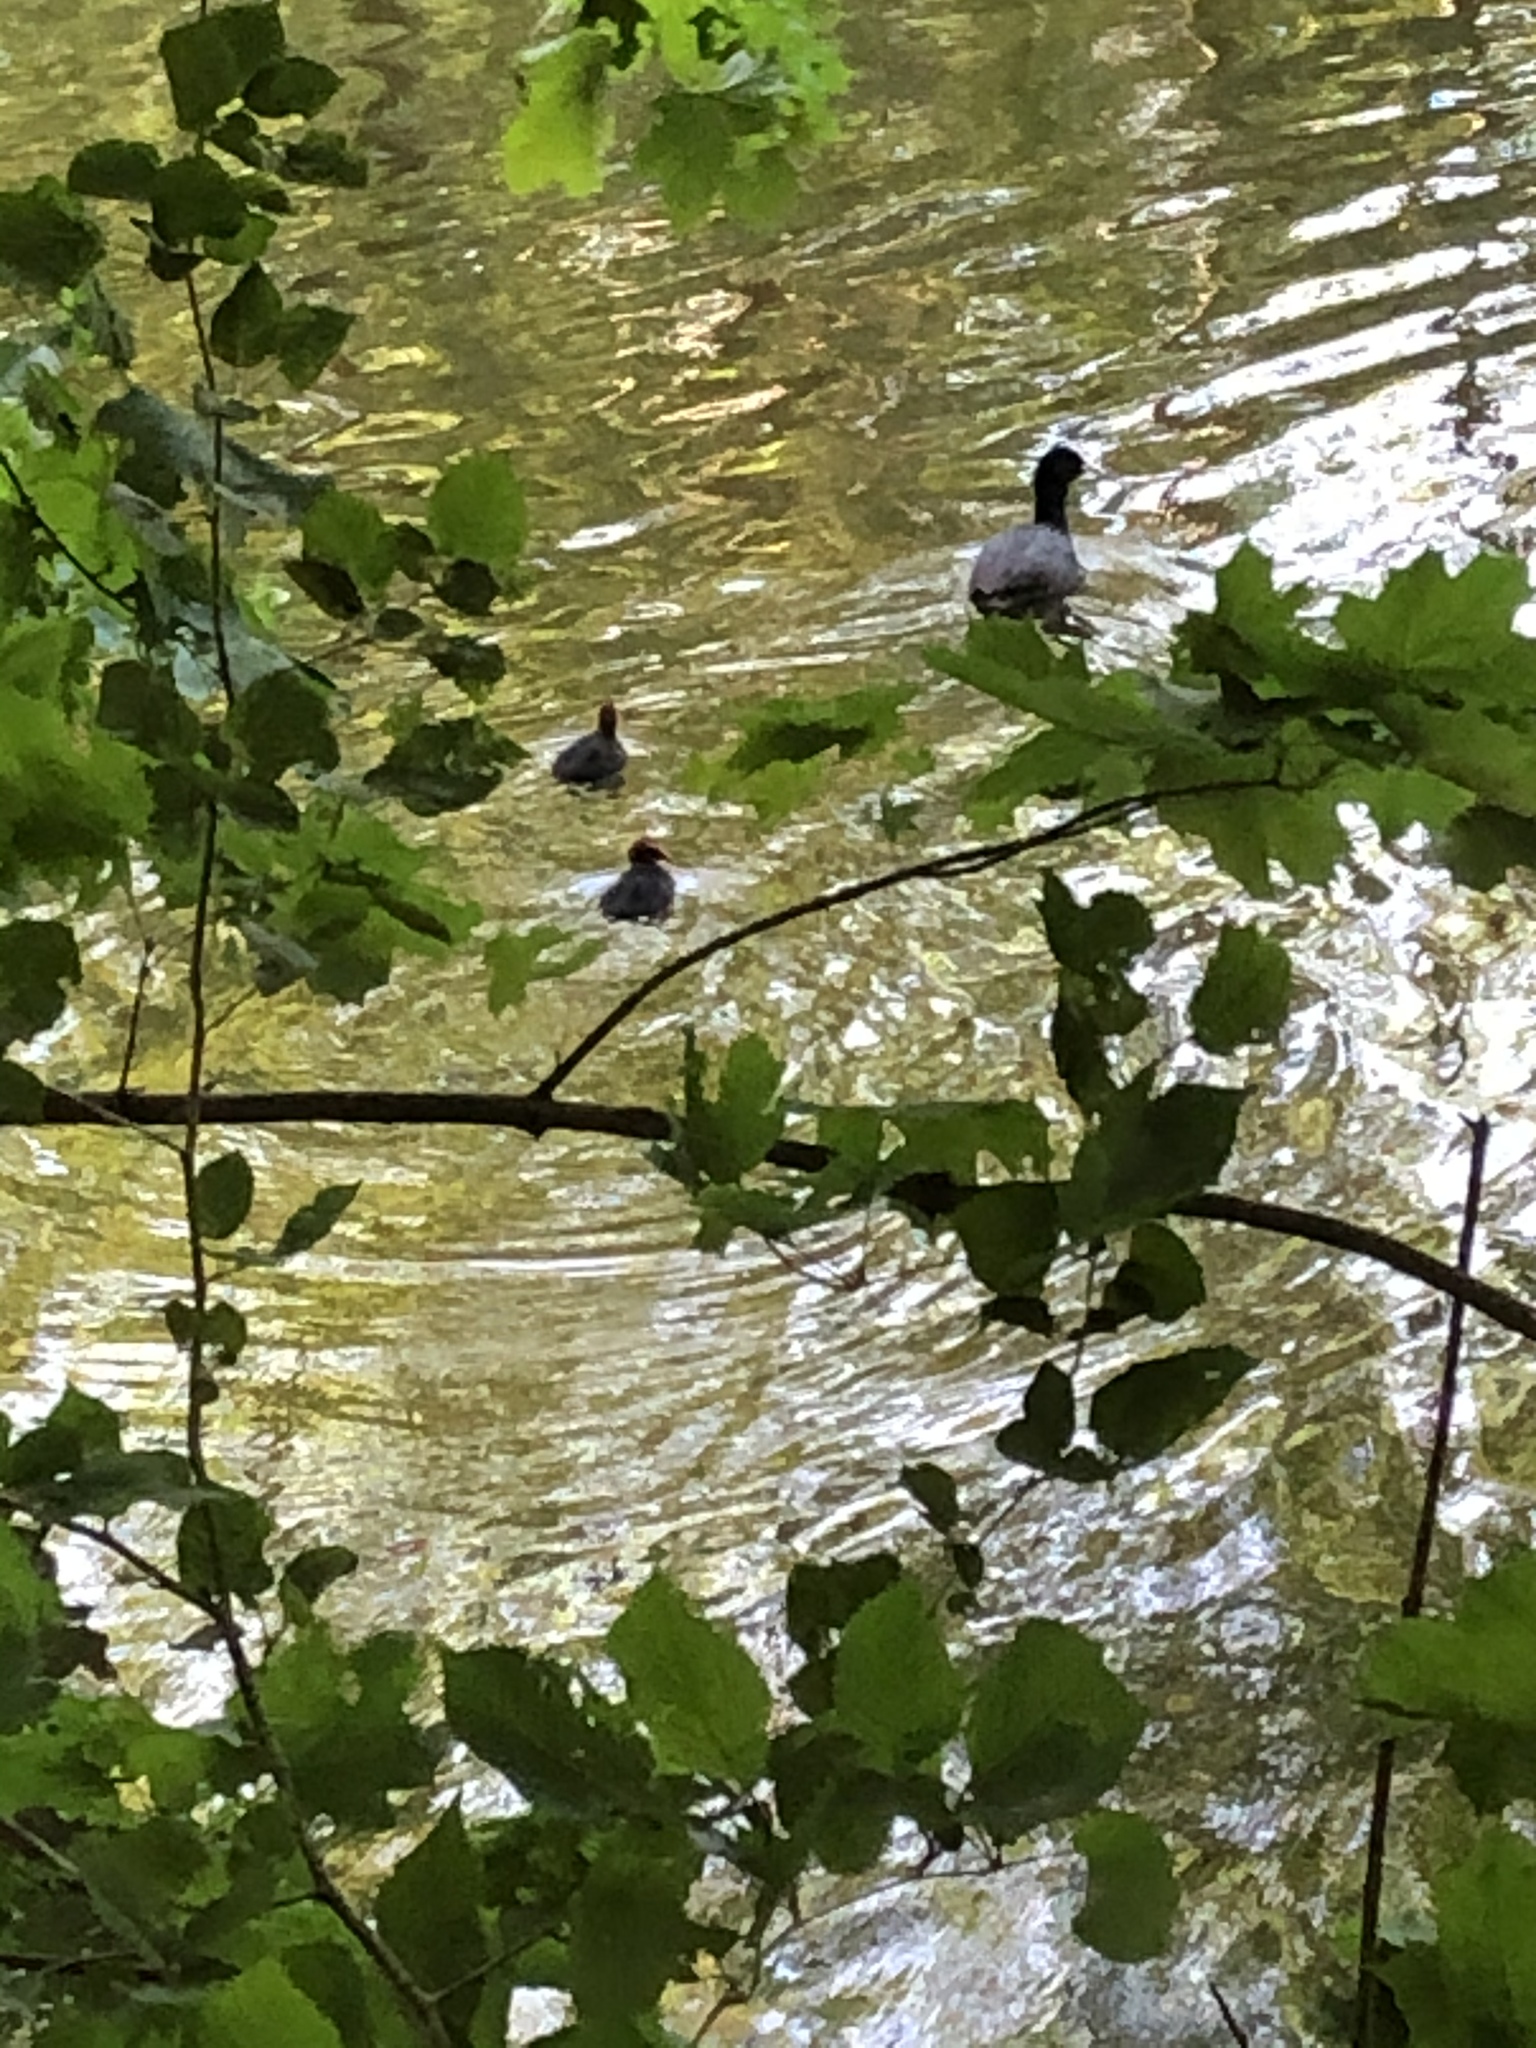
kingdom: Animalia
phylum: Chordata
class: Aves
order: Gruiformes
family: Rallidae
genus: Fulica
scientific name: Fulica atra
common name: Eurasian coot
